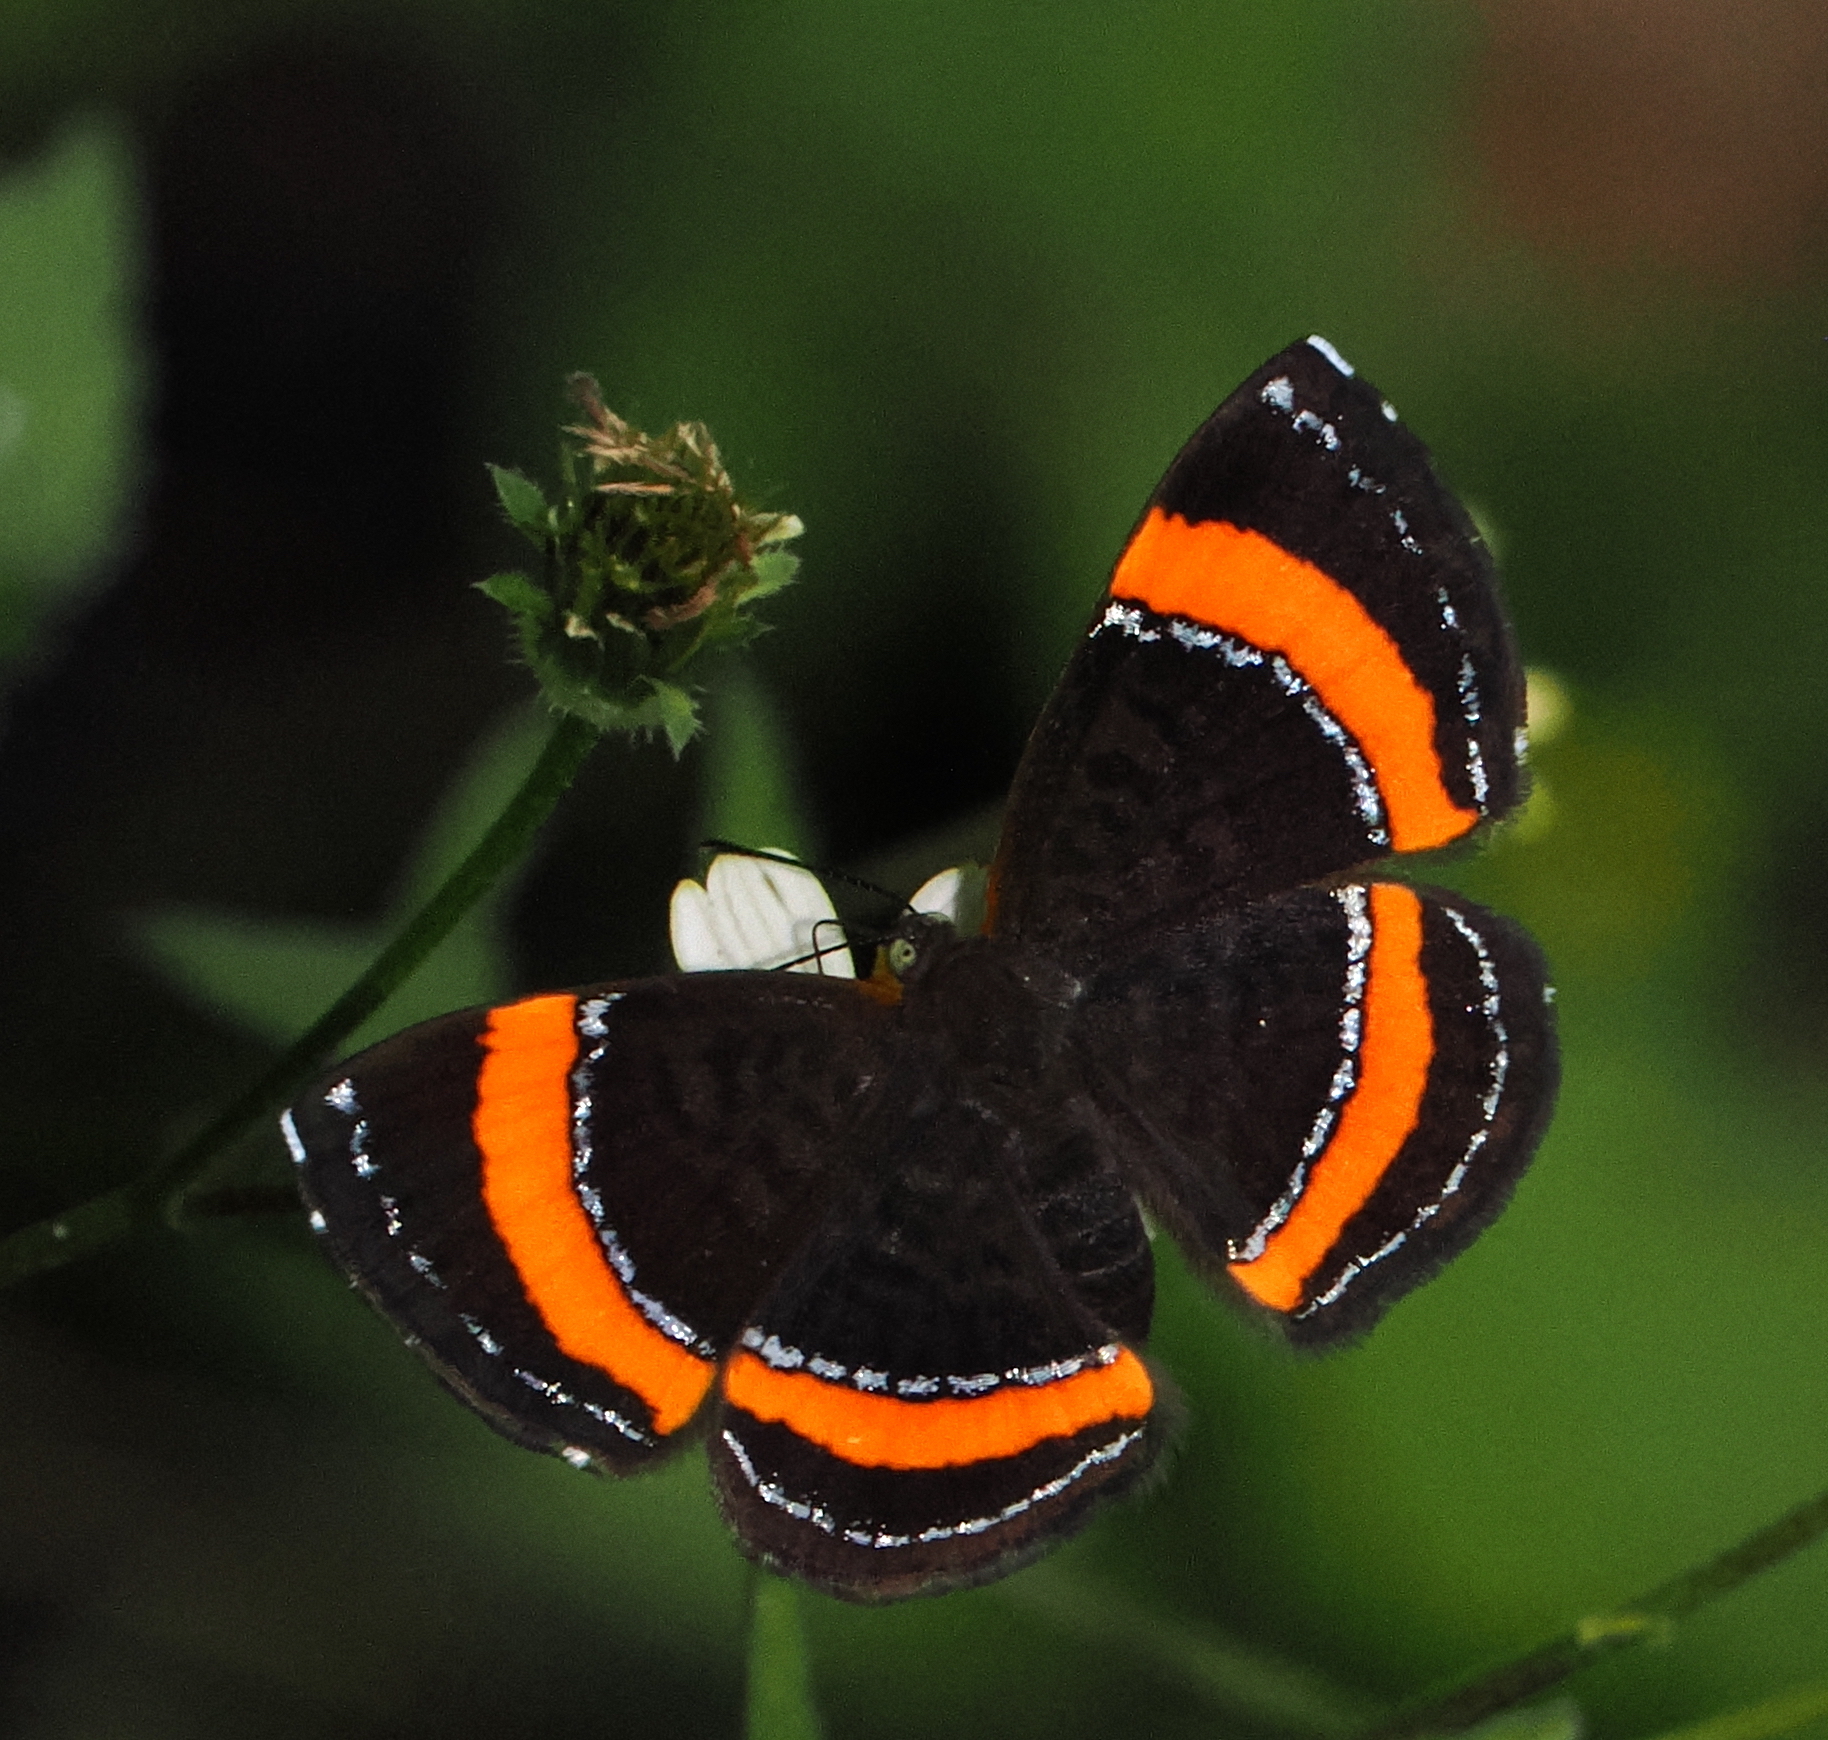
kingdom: Animalia
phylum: Arthropoda
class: Insecta
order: Lepidoptera
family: Riodinidae
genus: Crocozona
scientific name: Crocozona coecias
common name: Orange-banded gem
